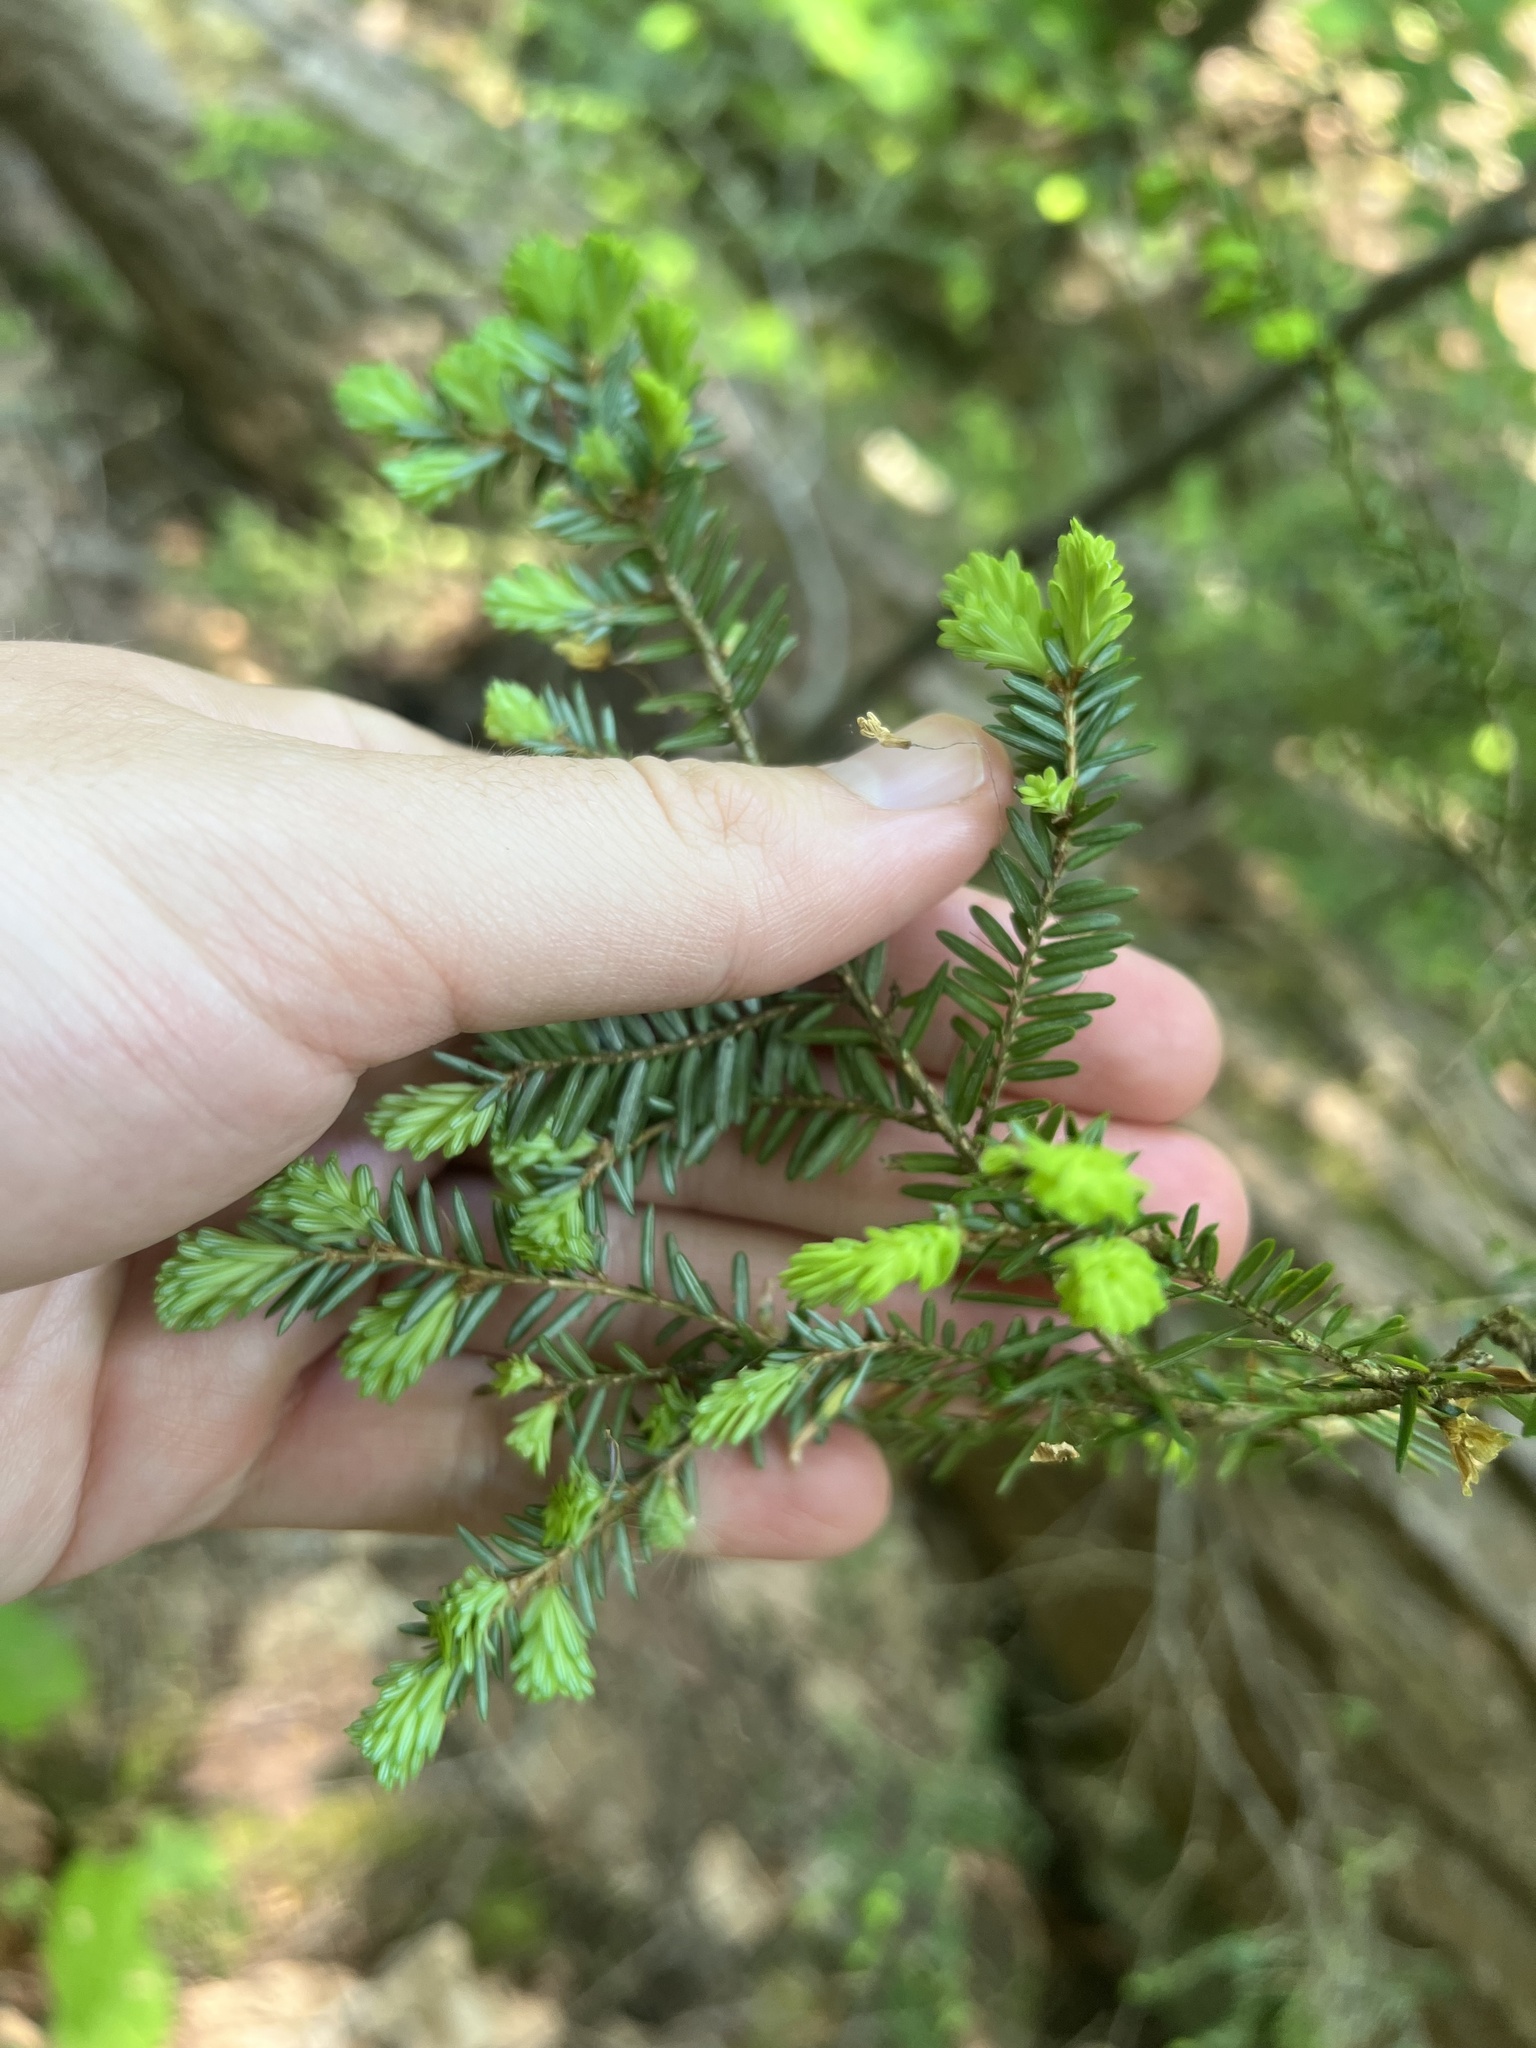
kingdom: Plantae
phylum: Tracheophyta
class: Pinopsida
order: Pinales
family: Pinaceae
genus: Tsuga
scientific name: Tsuga canadensis
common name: Eastern hemlock
